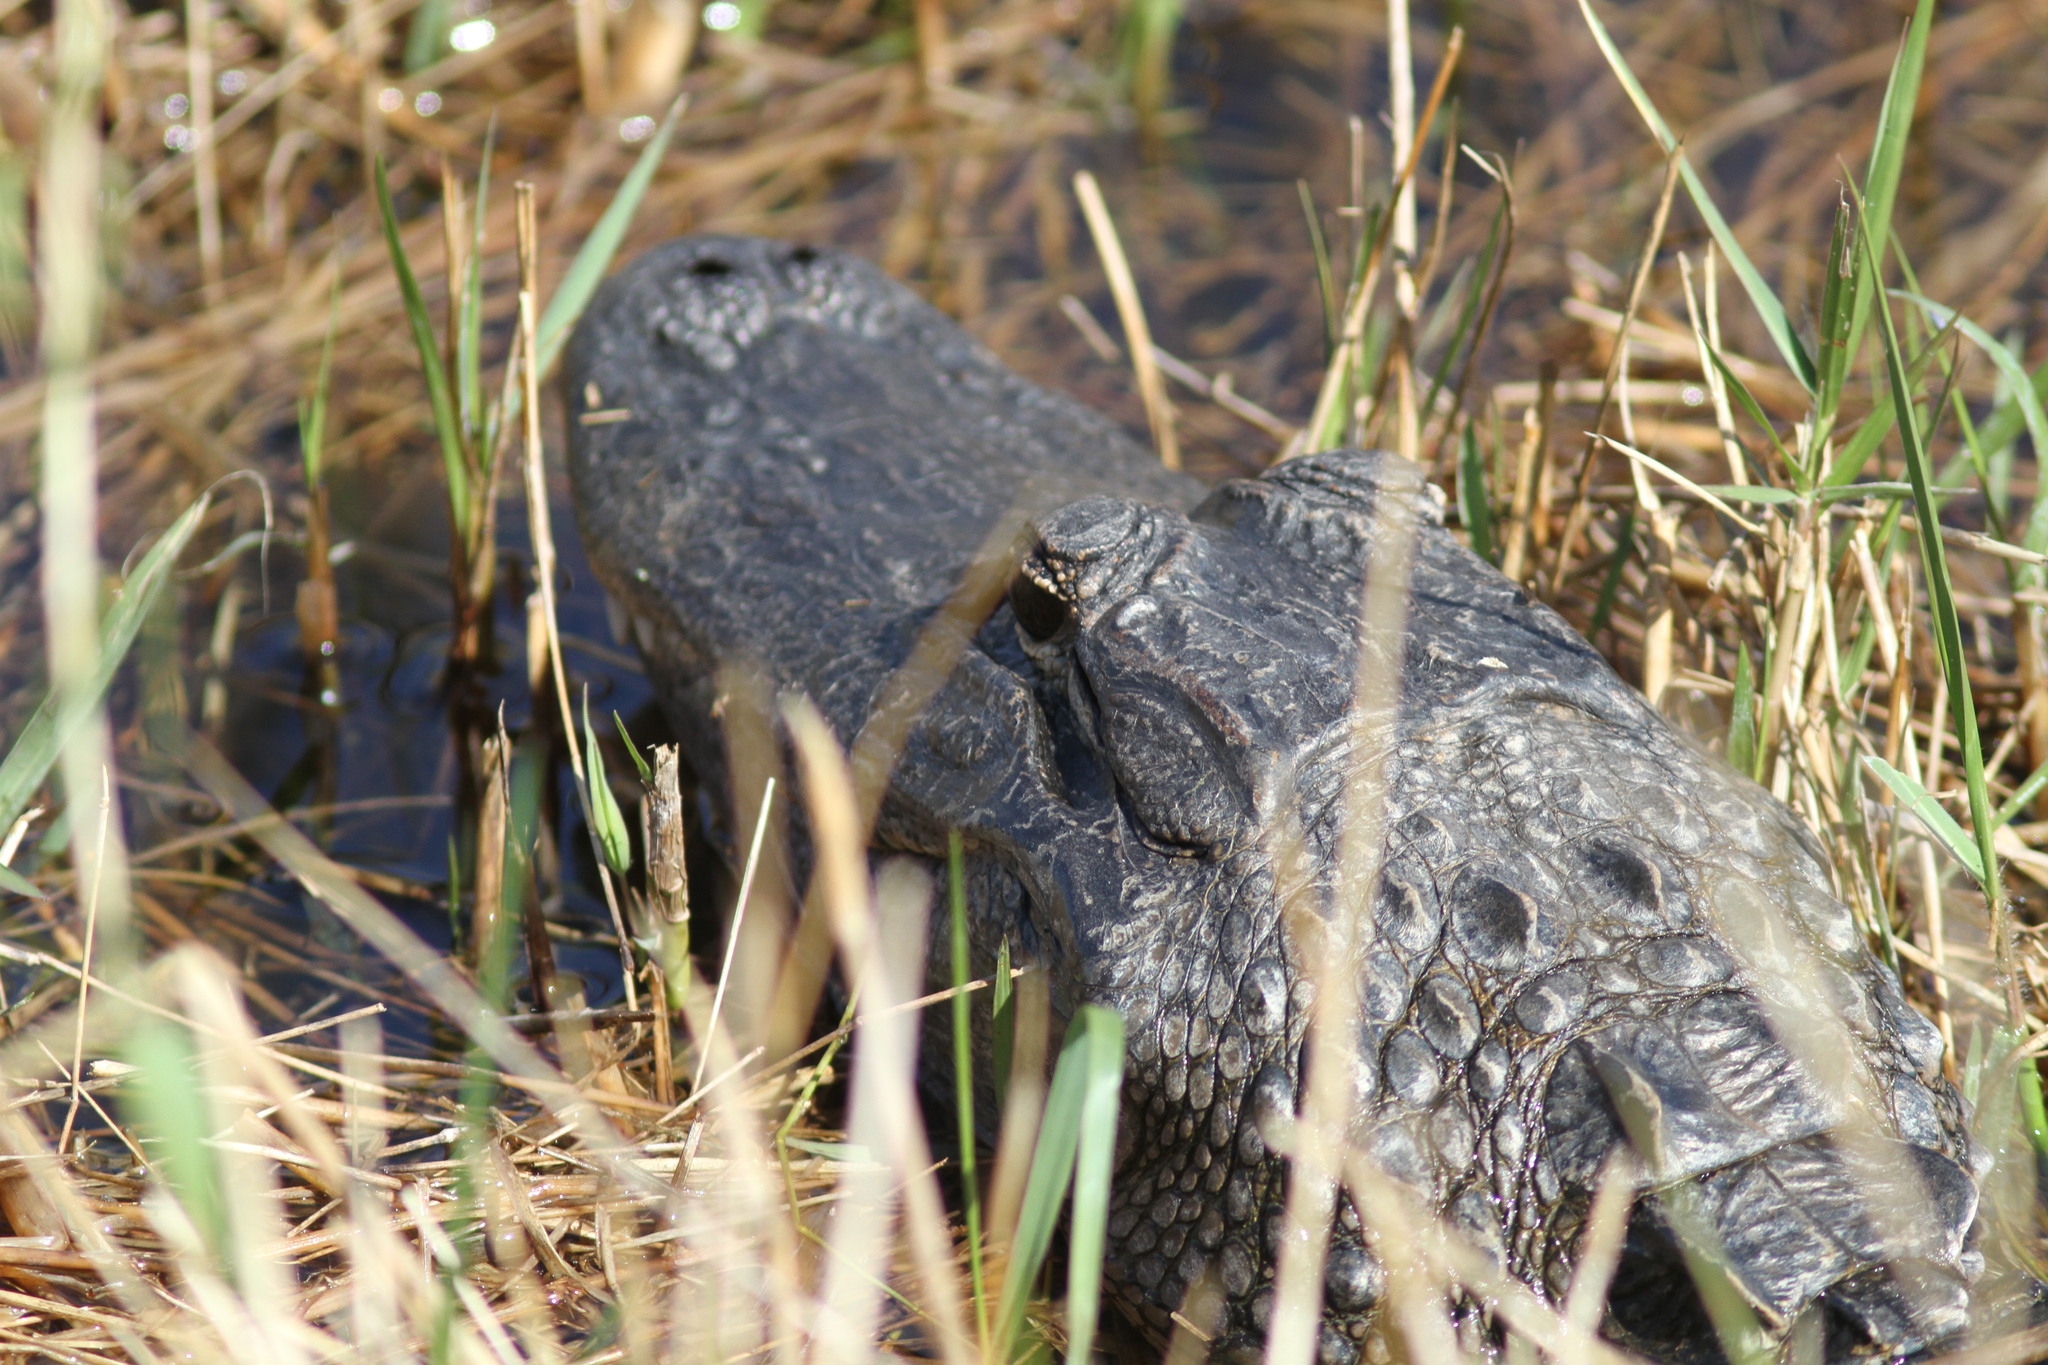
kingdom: Animalia
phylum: Chordata
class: Crocodylia
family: Alligatoridae
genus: Alligator
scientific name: Alligator mississippiensis
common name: American alligator
